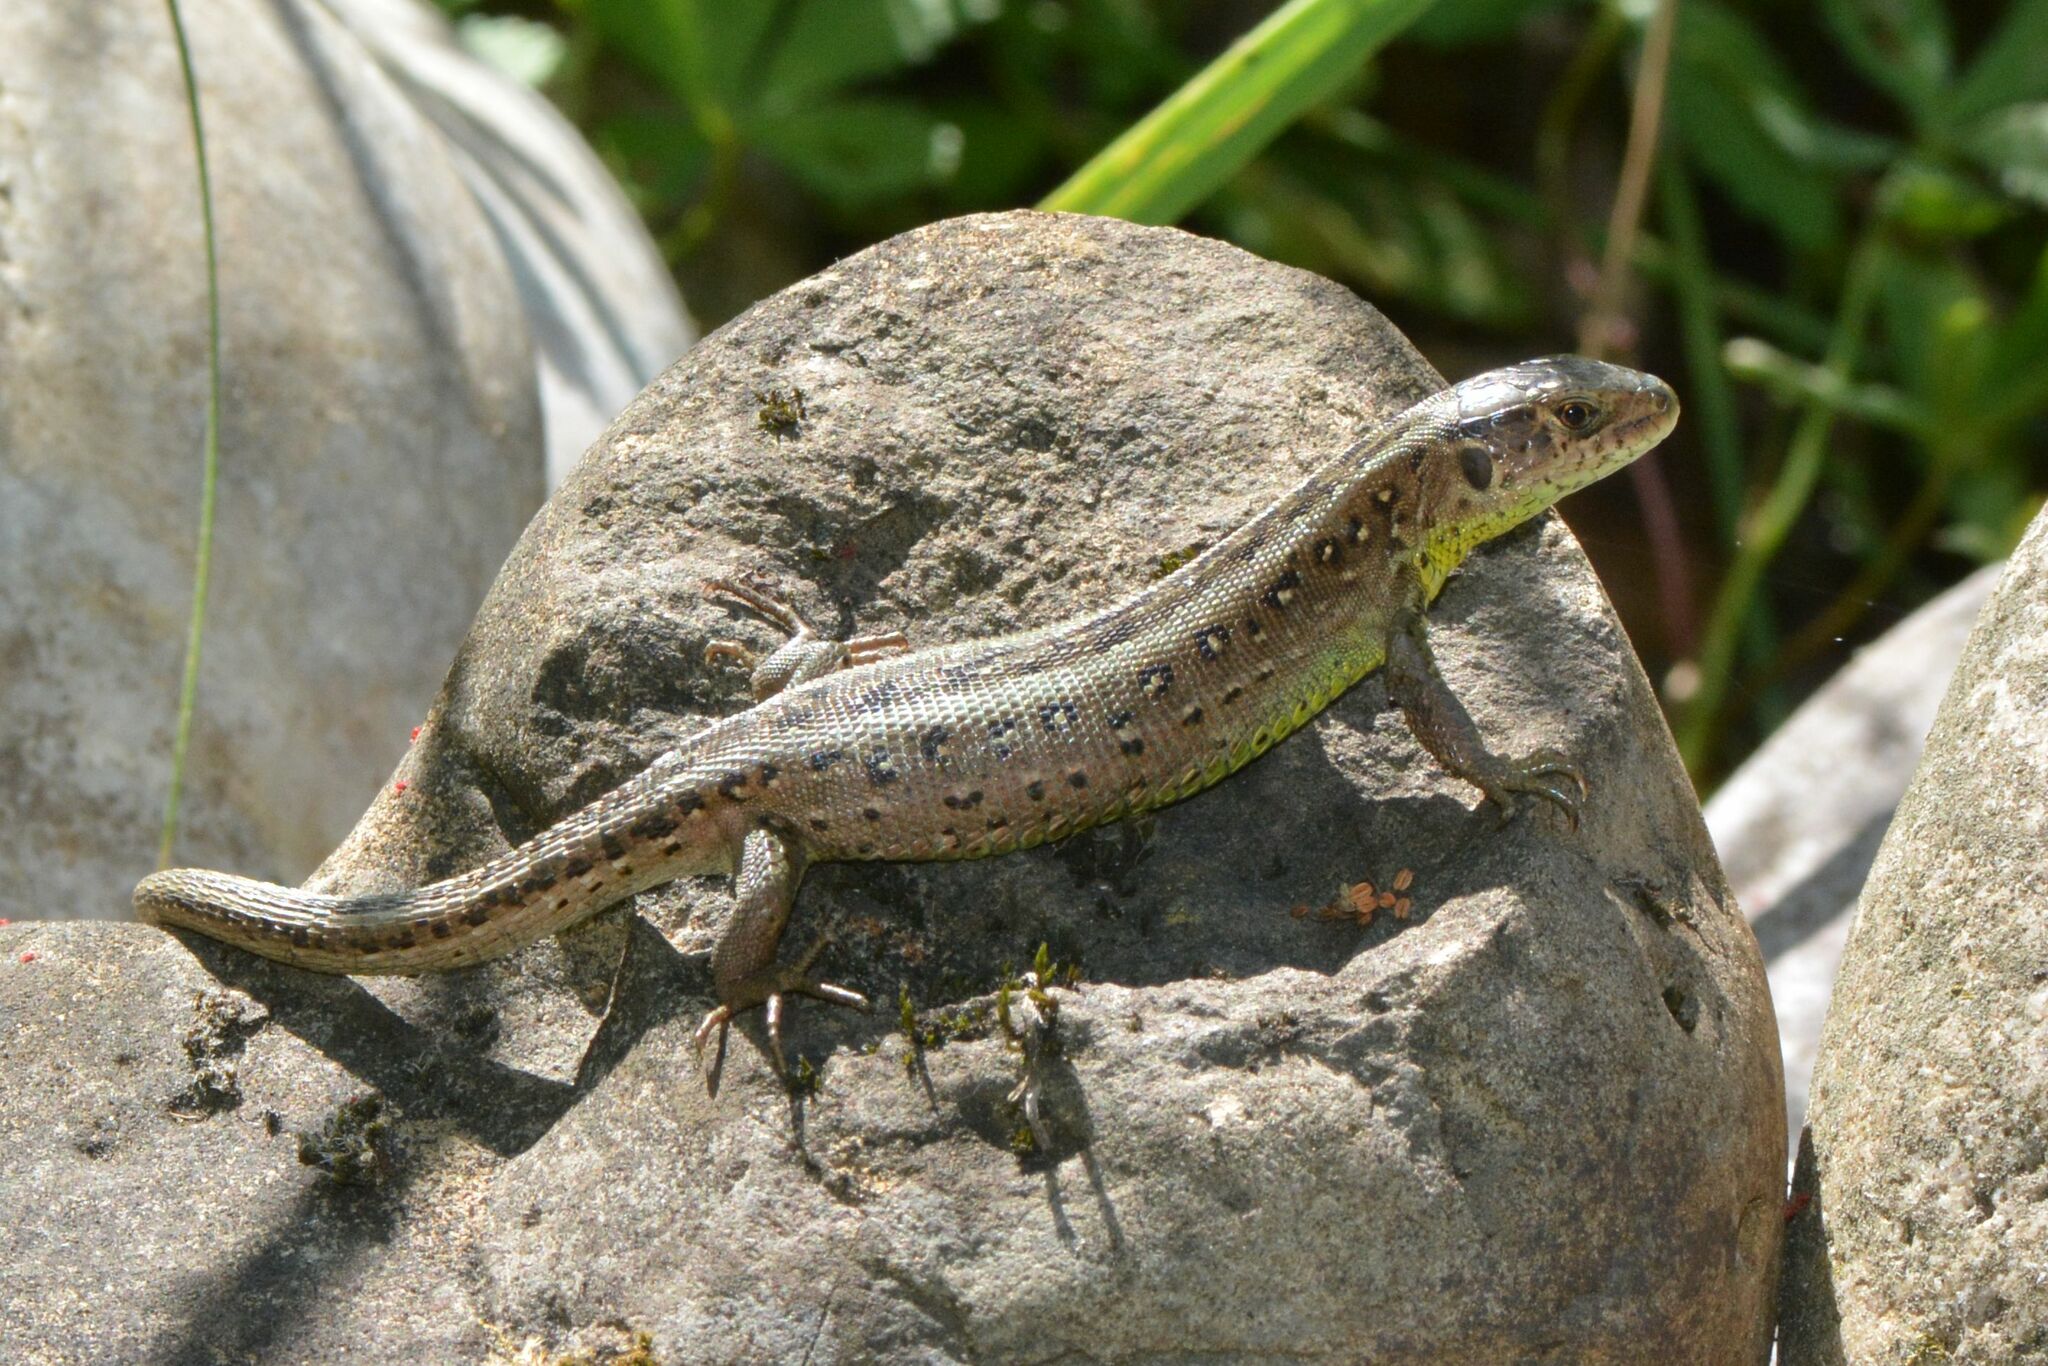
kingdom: Animalia
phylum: Chordata
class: Squamata
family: Lacertidae
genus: Lacerta
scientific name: Lacerta agilis
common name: Sand lizard
